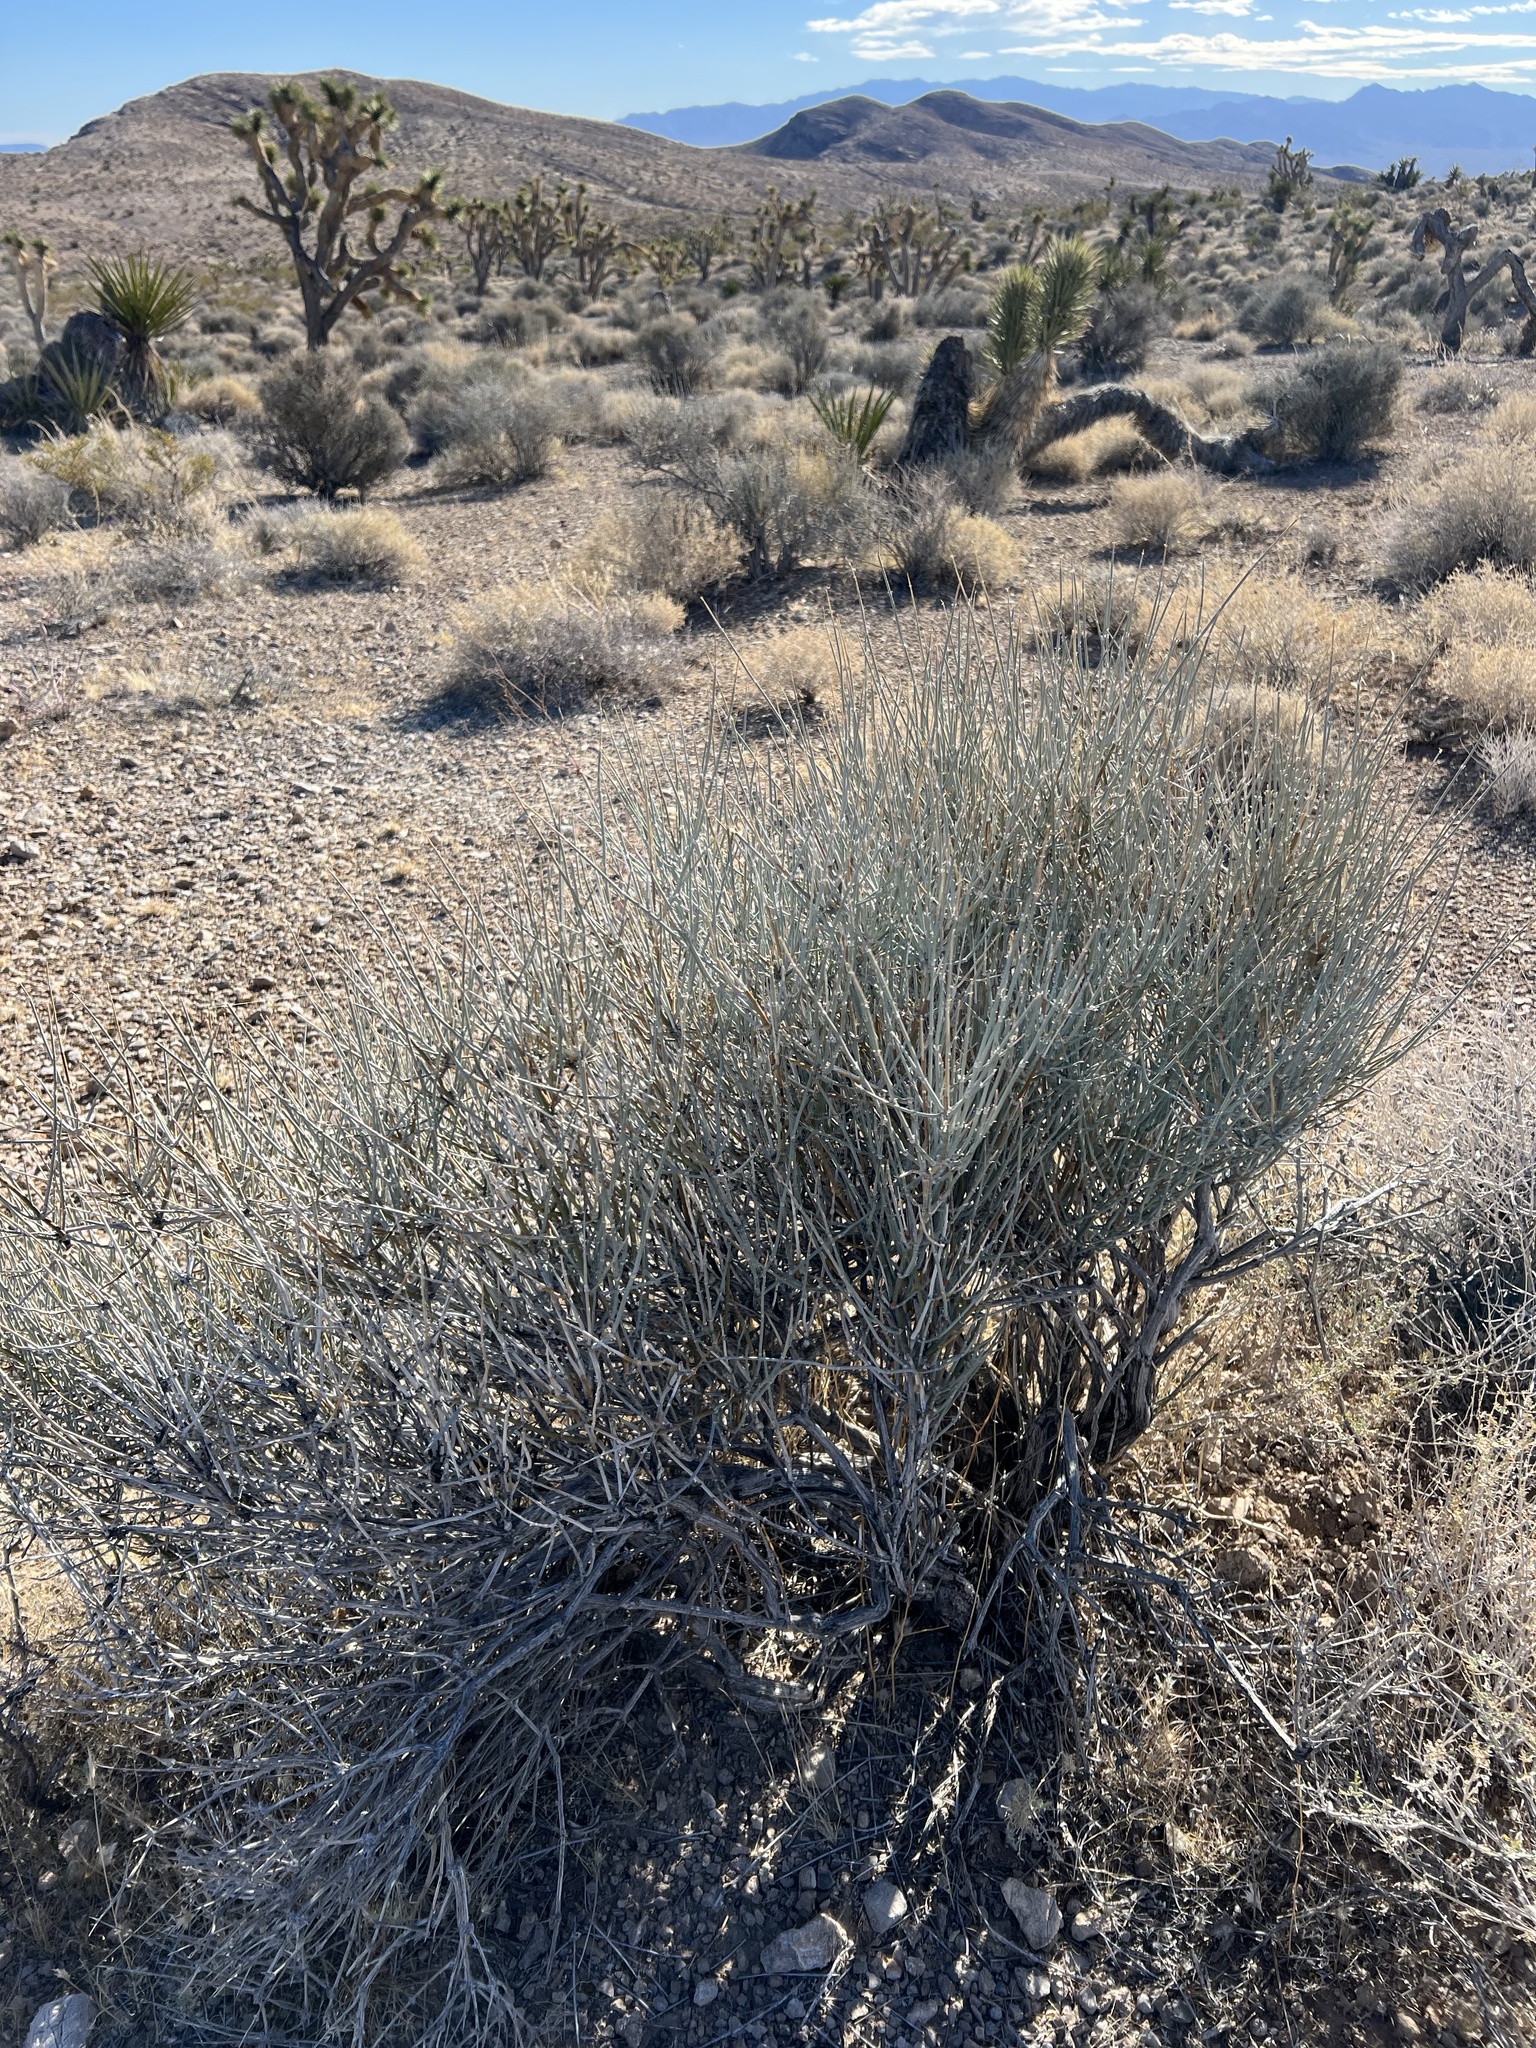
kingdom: Plantae
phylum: Tracheophyta
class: Gnetopsida
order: Ephedrales
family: Ephedraceae
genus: Ephedra
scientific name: Ephedra nevadensis
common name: Gray ephedra
